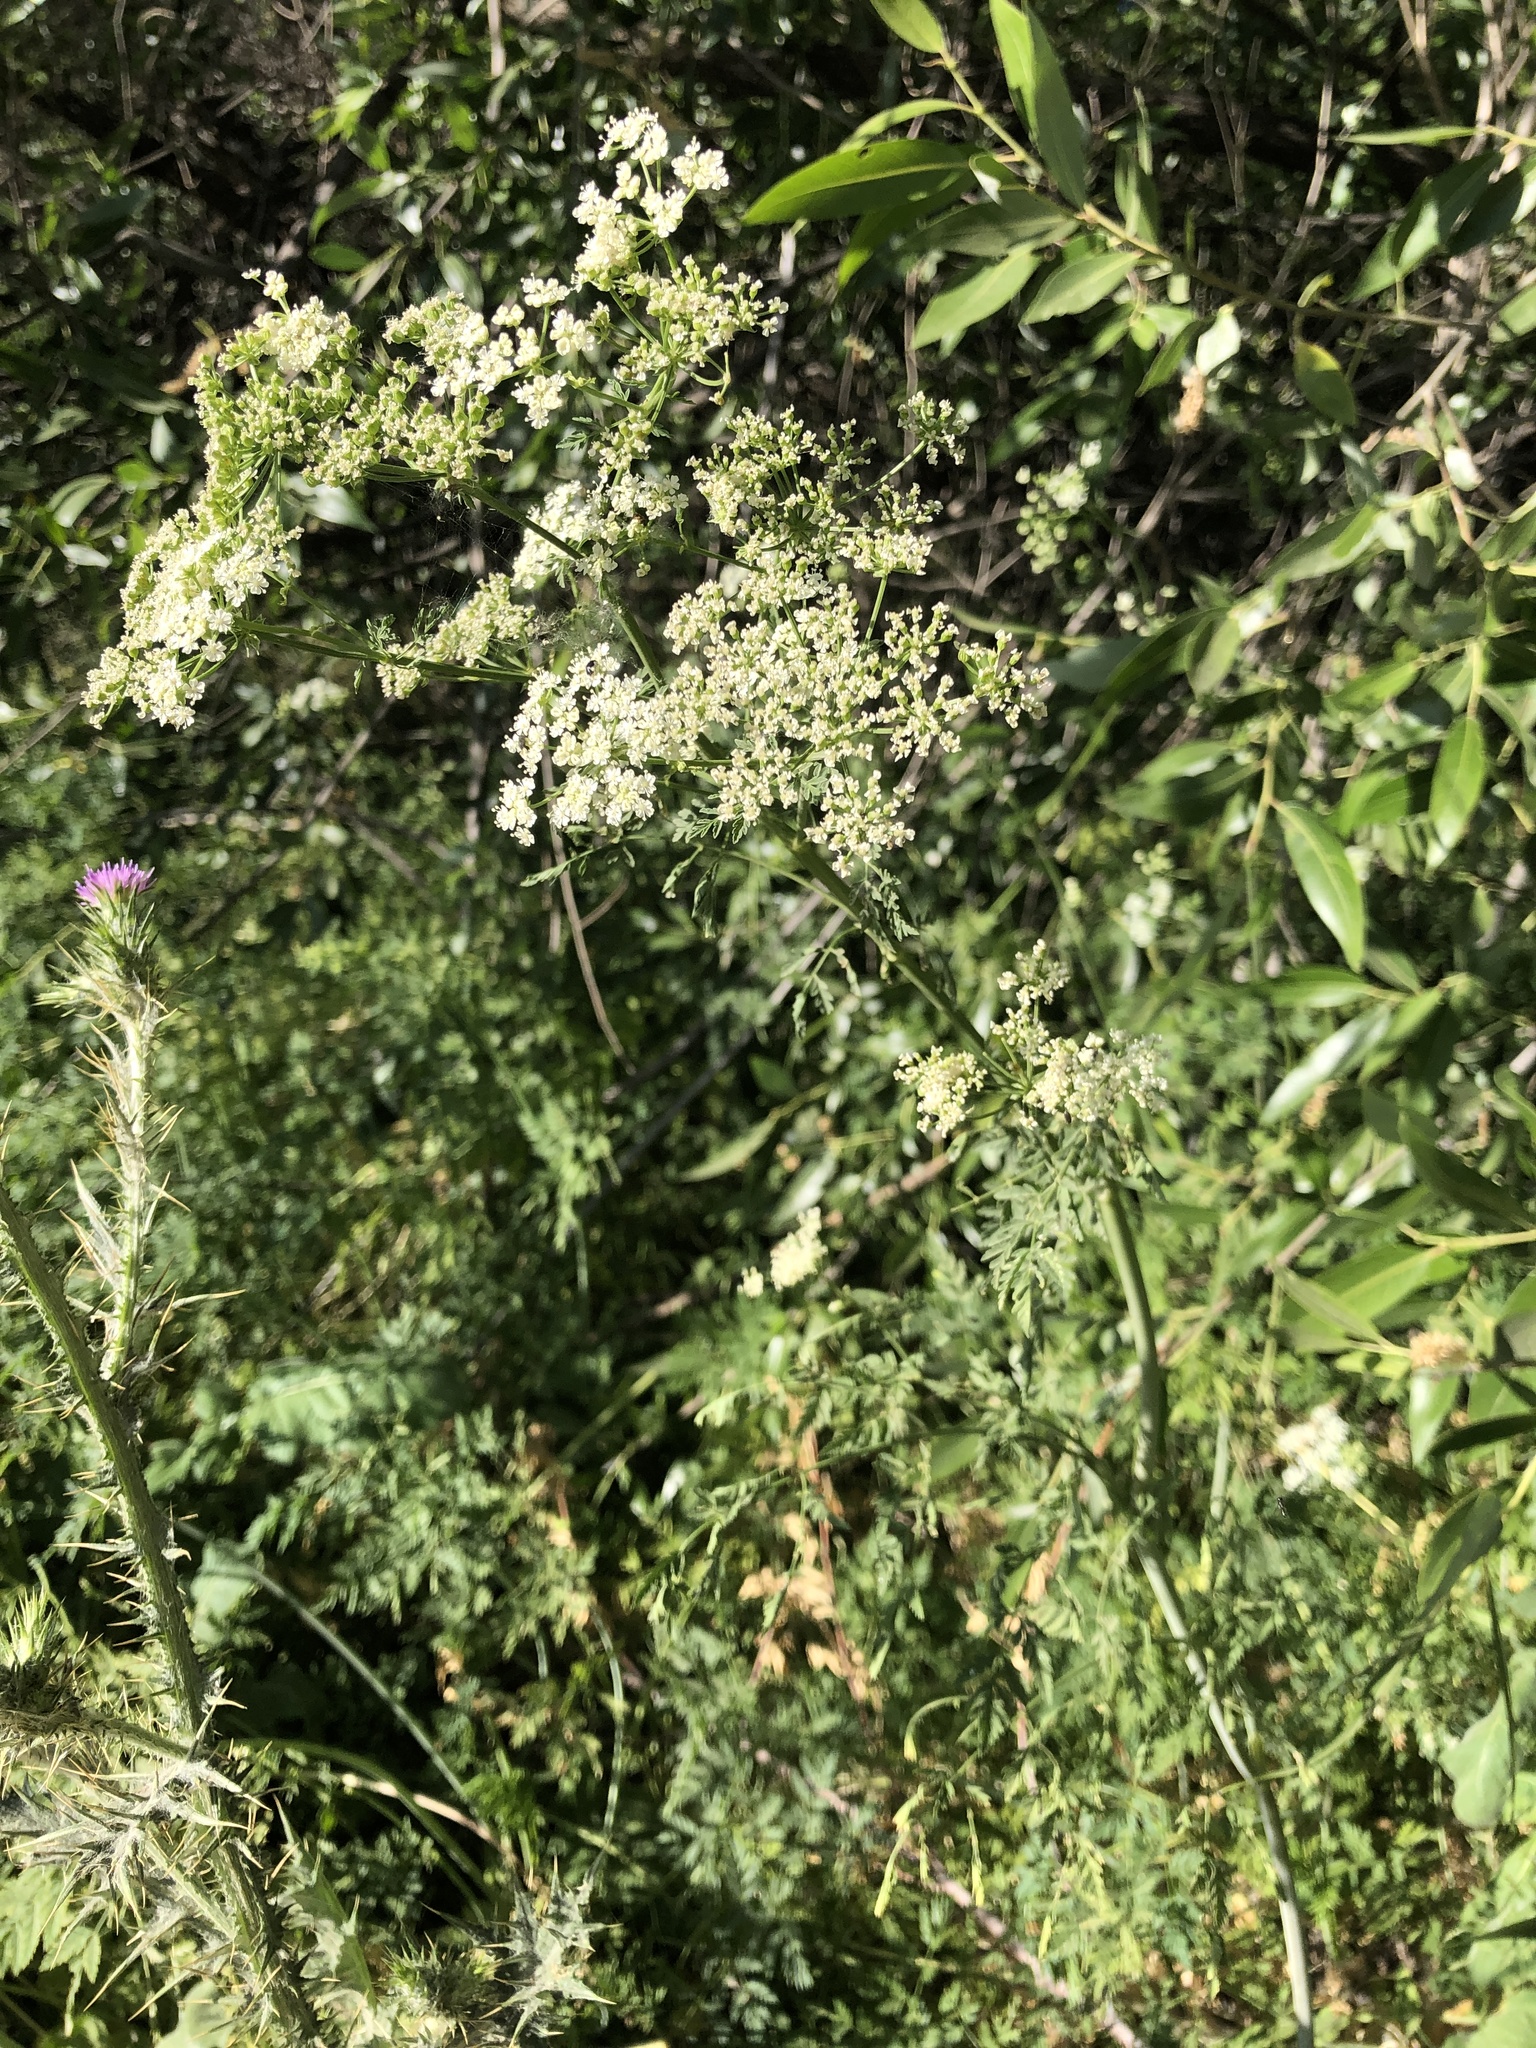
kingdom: Plantae
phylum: Tracheophyta
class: Magnoliopsida
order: Apiales
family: Apiaceae
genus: Conium
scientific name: Conium maculatum
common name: Hemlock
